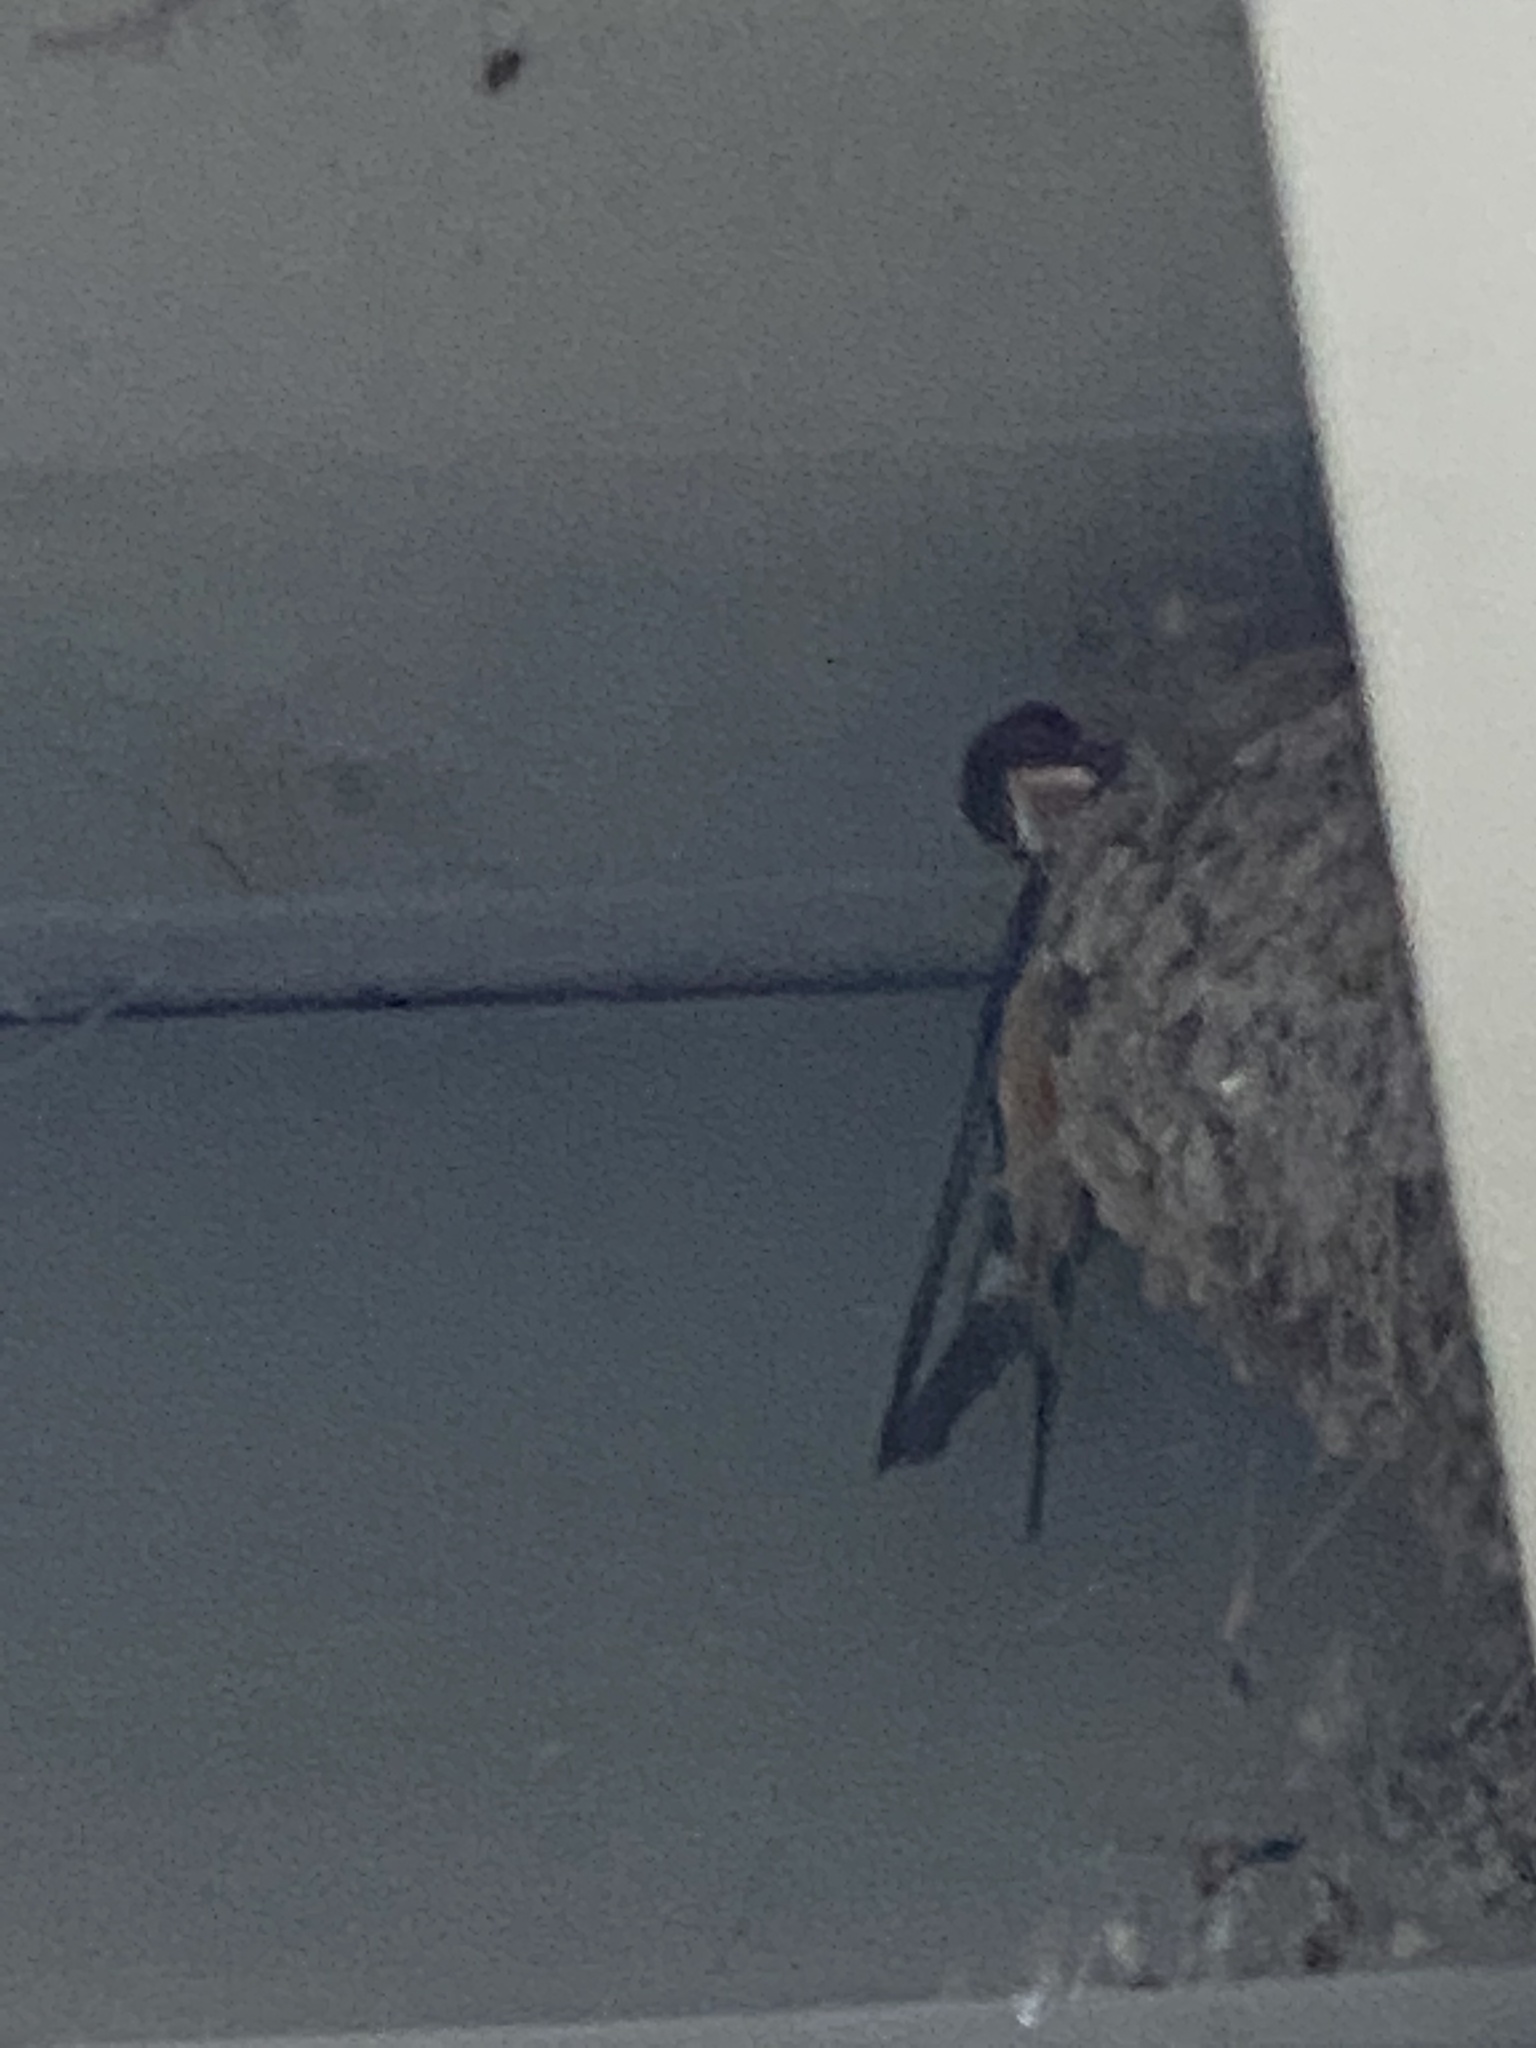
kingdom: Animalia
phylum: Chordata
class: Aves
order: Passeriformes
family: Hirundinidae
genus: Hirundo
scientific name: Hirundo rustica
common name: Barn swallow
